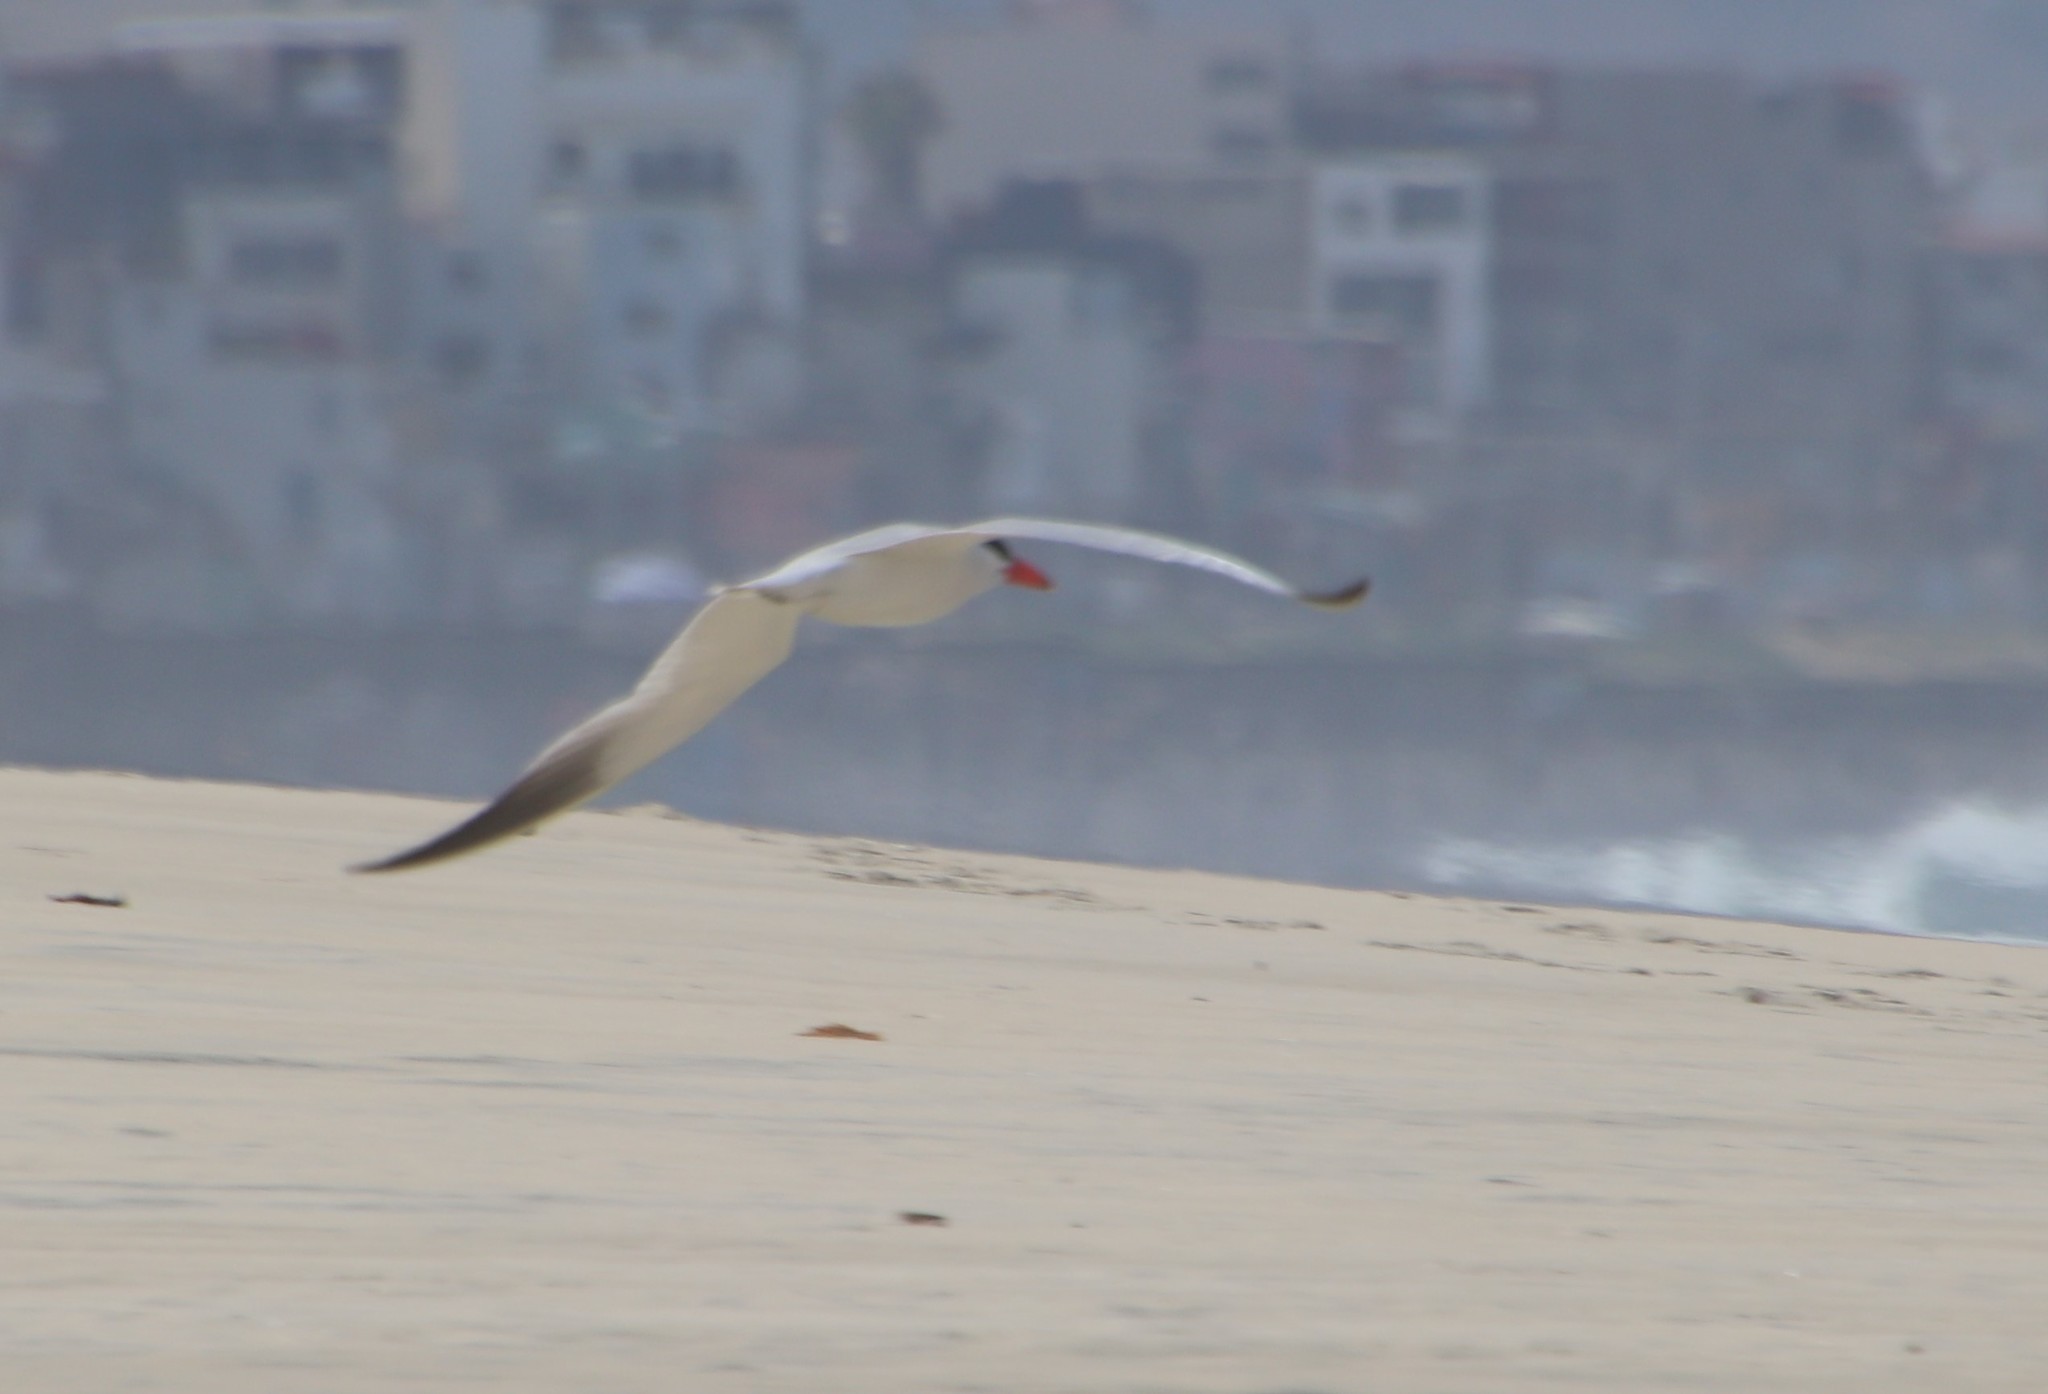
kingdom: Animalia
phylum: Chordata
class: Aves
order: Charadriiformes
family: Laridae
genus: Hydroprogne
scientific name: Hydroprogne caspia
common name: Caspian tern
